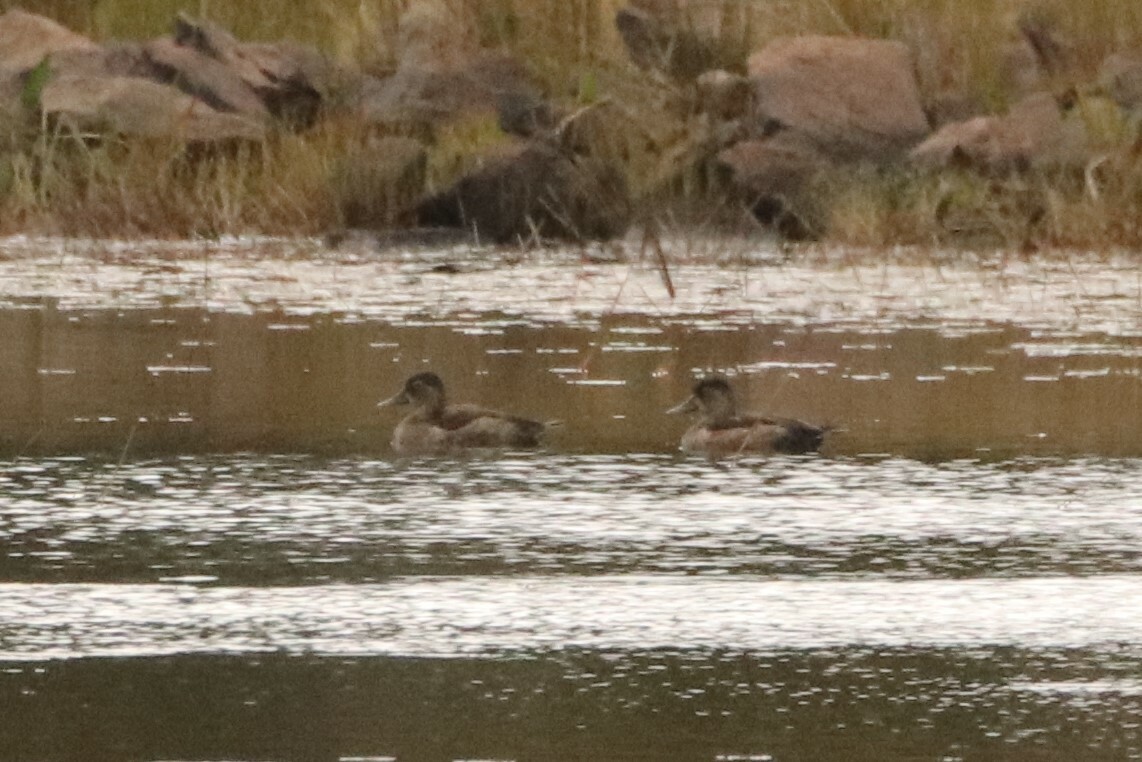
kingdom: Animalia
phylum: Chordata
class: Aves
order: Anseriformes
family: Anatidae
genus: Aythya
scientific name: Aythya collaris
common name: Ring-necked duck
